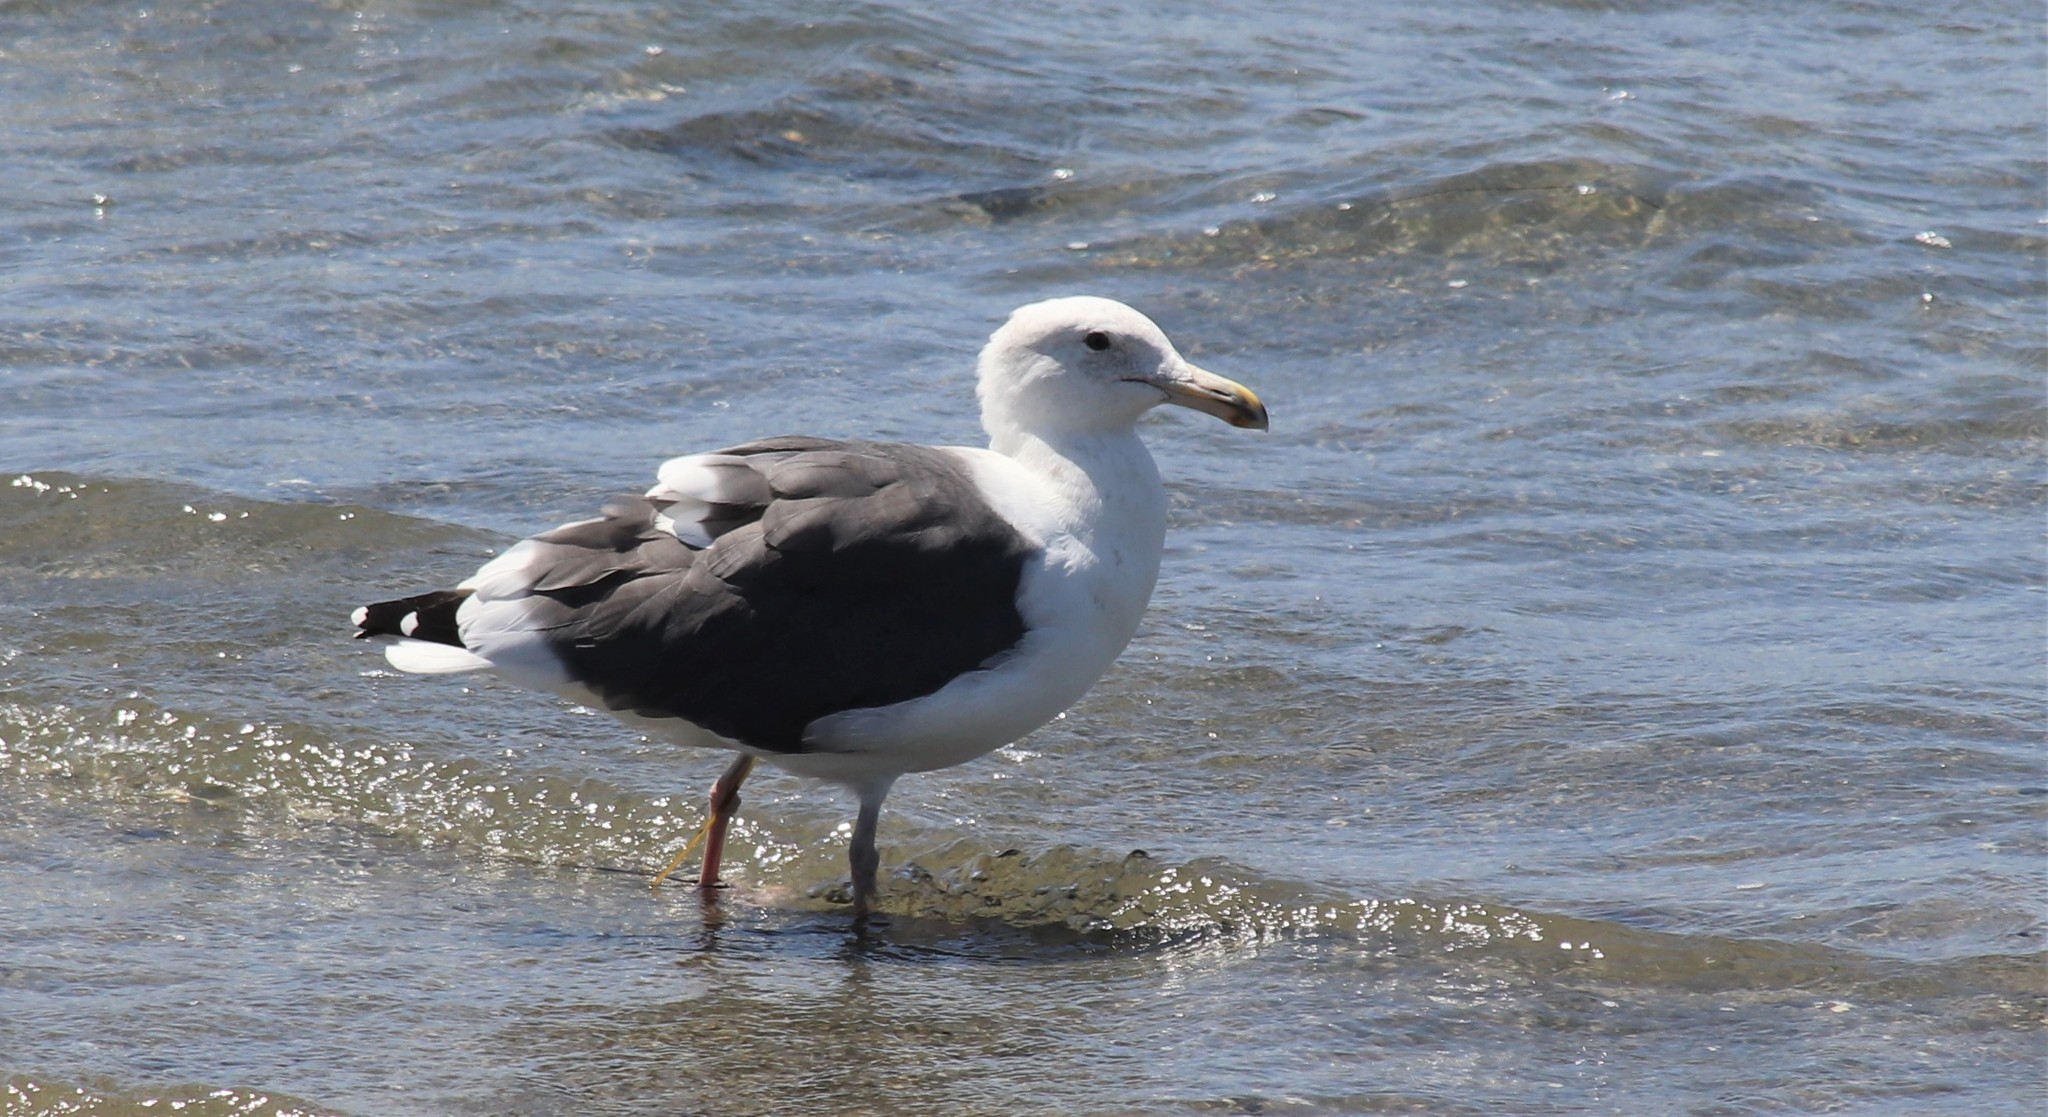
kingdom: Animalia
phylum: Chordata
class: Aves
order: Charadriiformes
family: Laridae
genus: Larus
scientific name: Larus occidentalis
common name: Western gull
